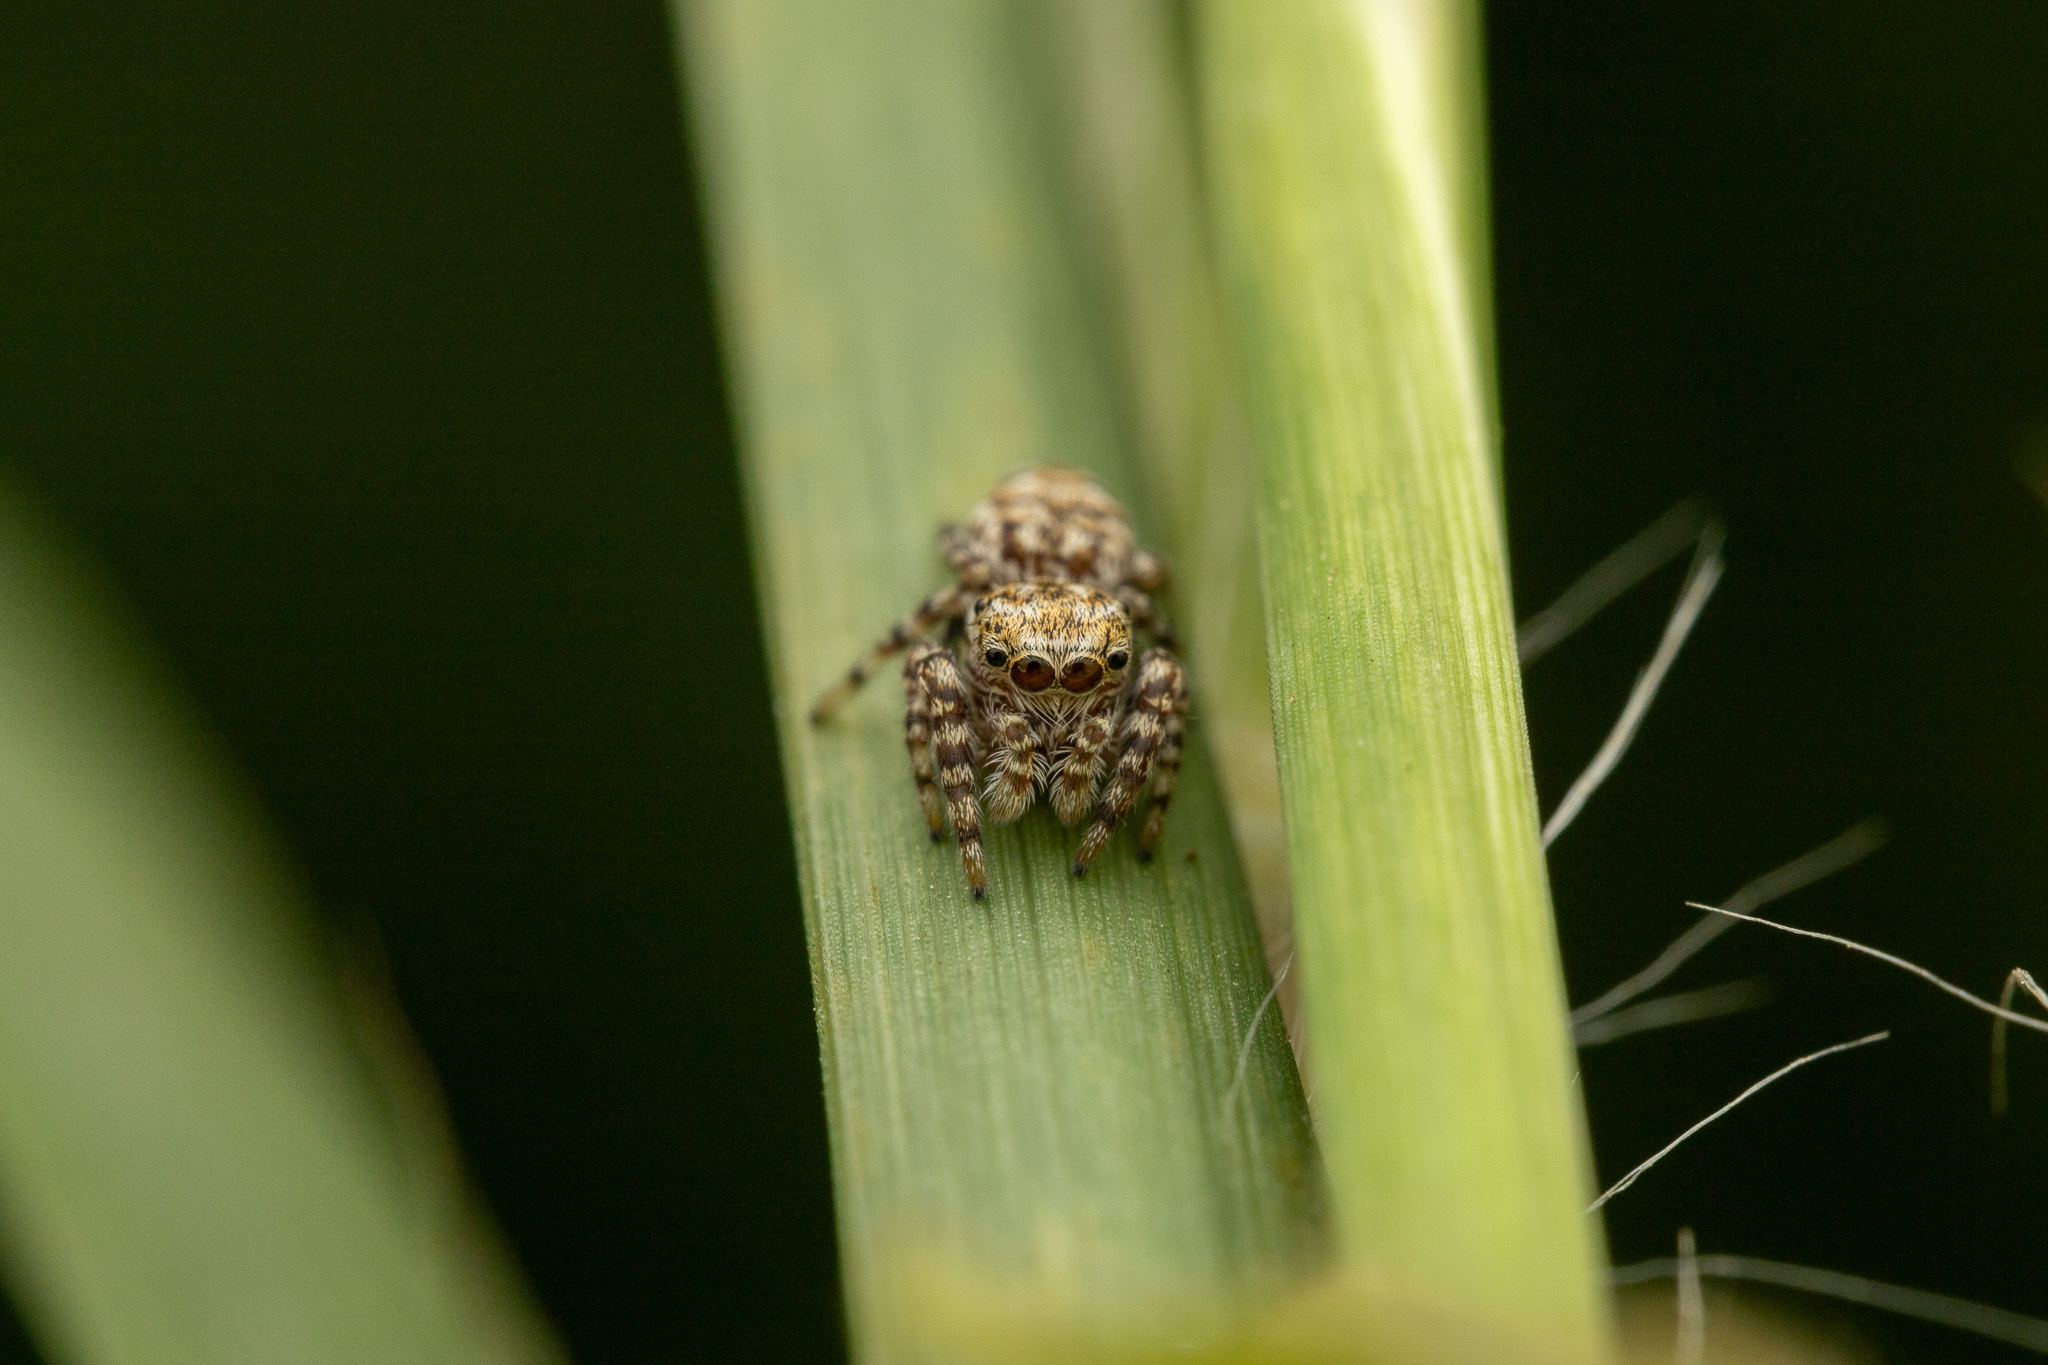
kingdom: Animalia
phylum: Arthropoda
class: Arachnida
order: Araneae
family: Salticidae
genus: Pelegrina
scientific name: Pelegrina galathea
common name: Jumping spiders
